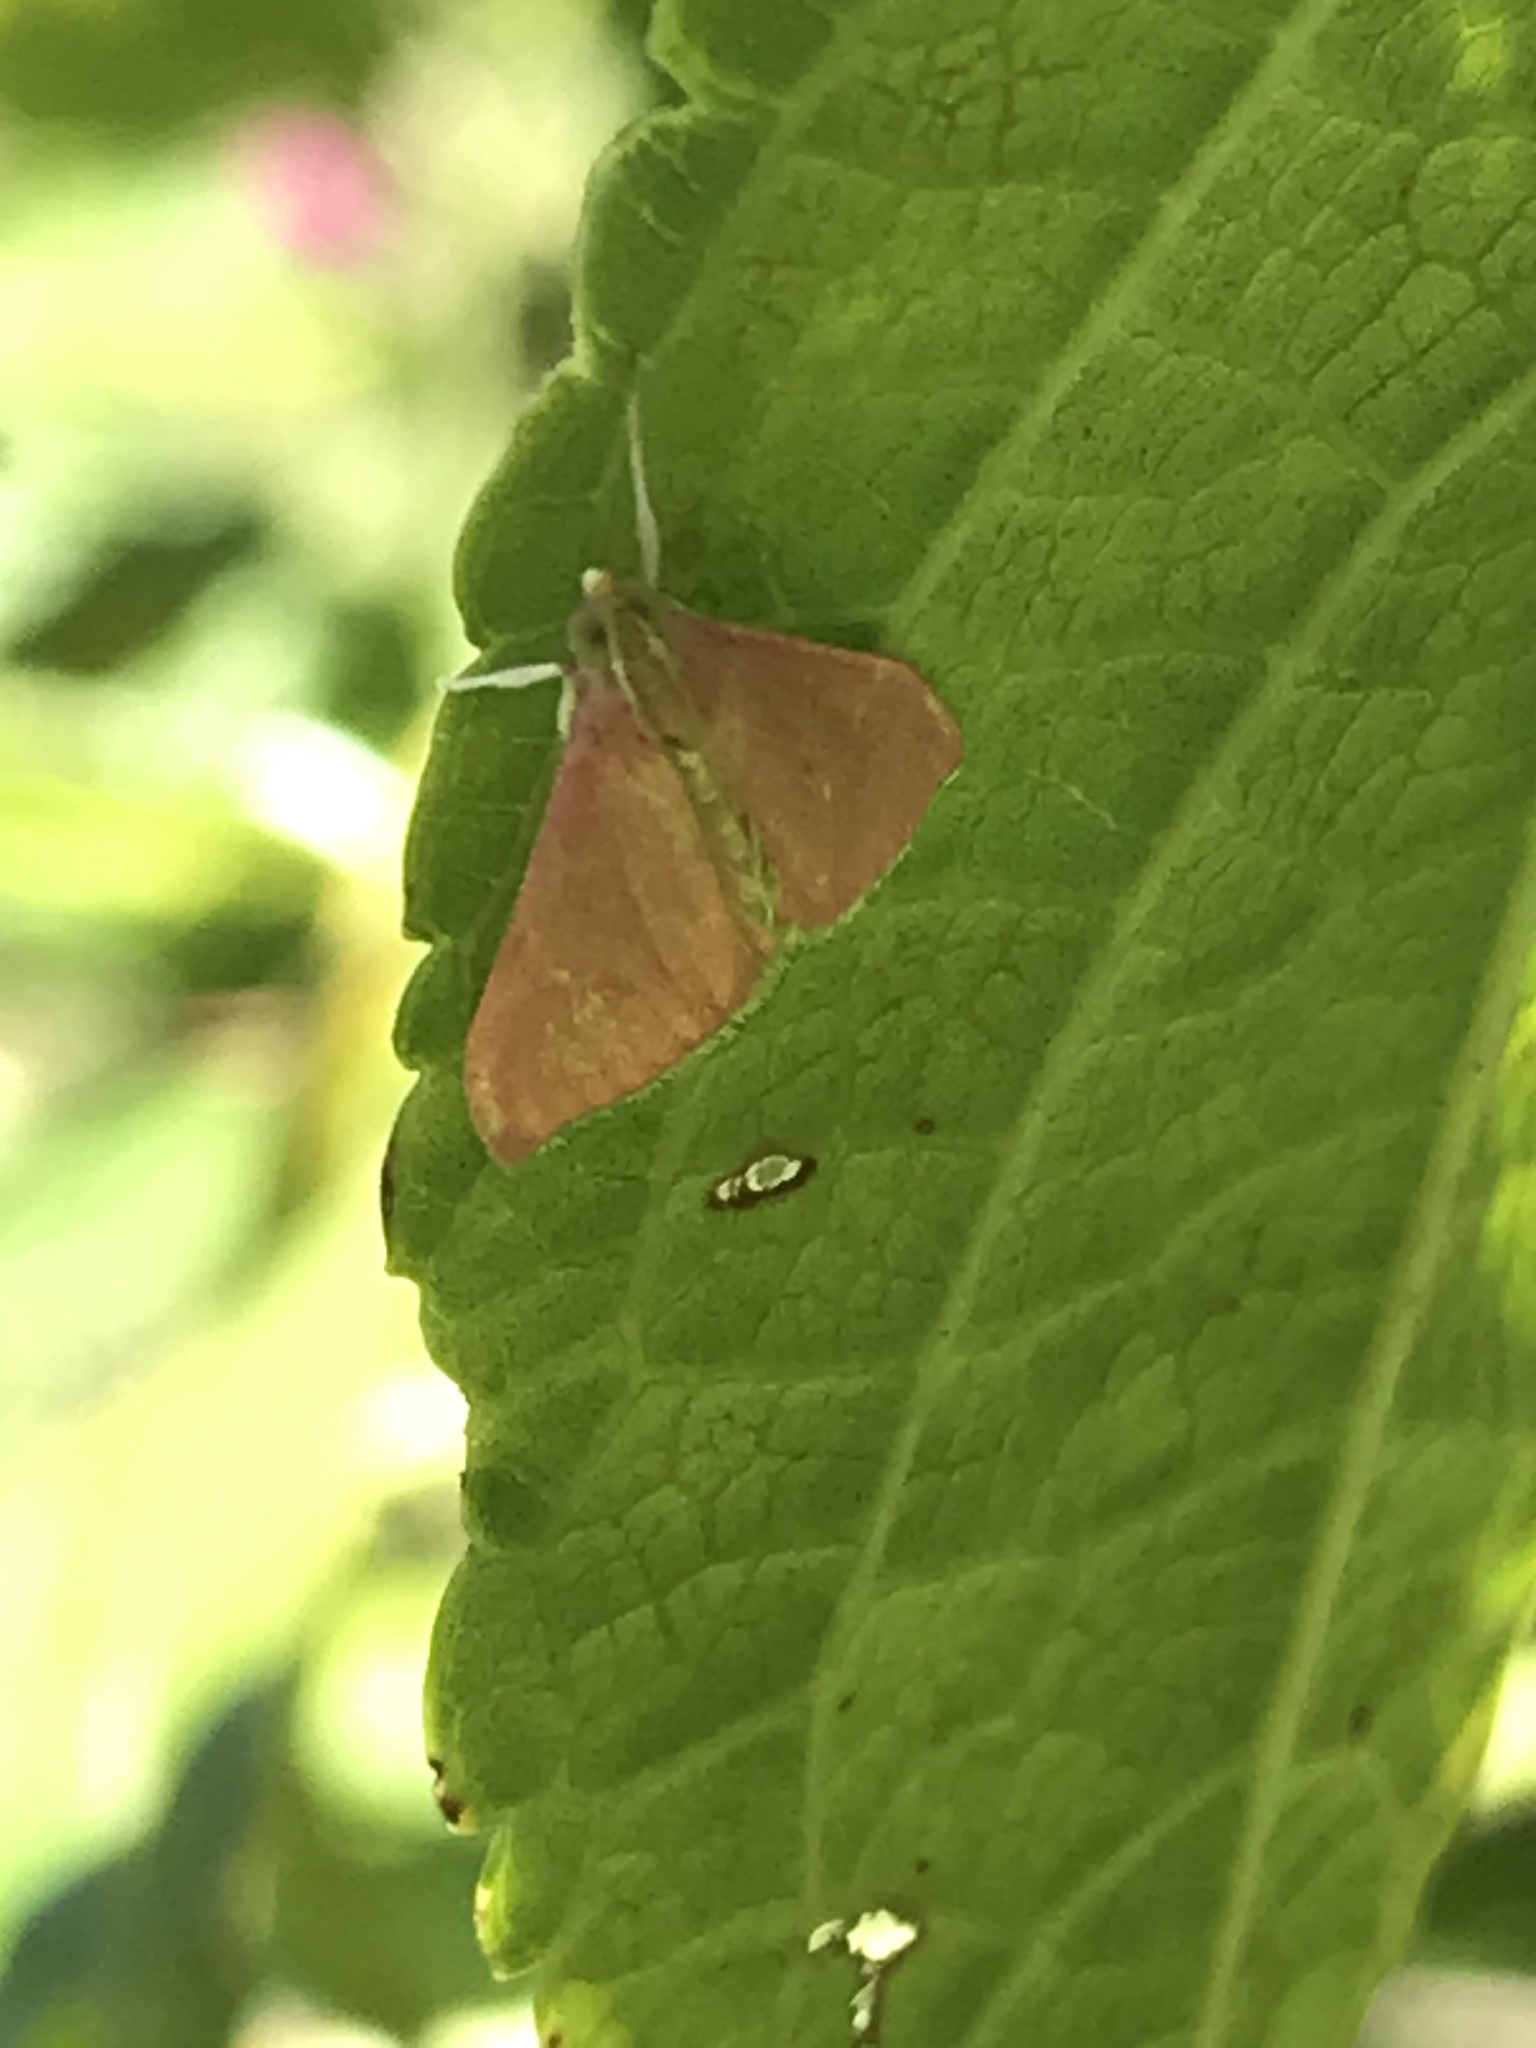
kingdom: Animalia
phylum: Arthropoda
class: Insecta
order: Lepidoptera
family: Crambidae
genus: Pyrausta
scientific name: Pyrausta inornatalis
